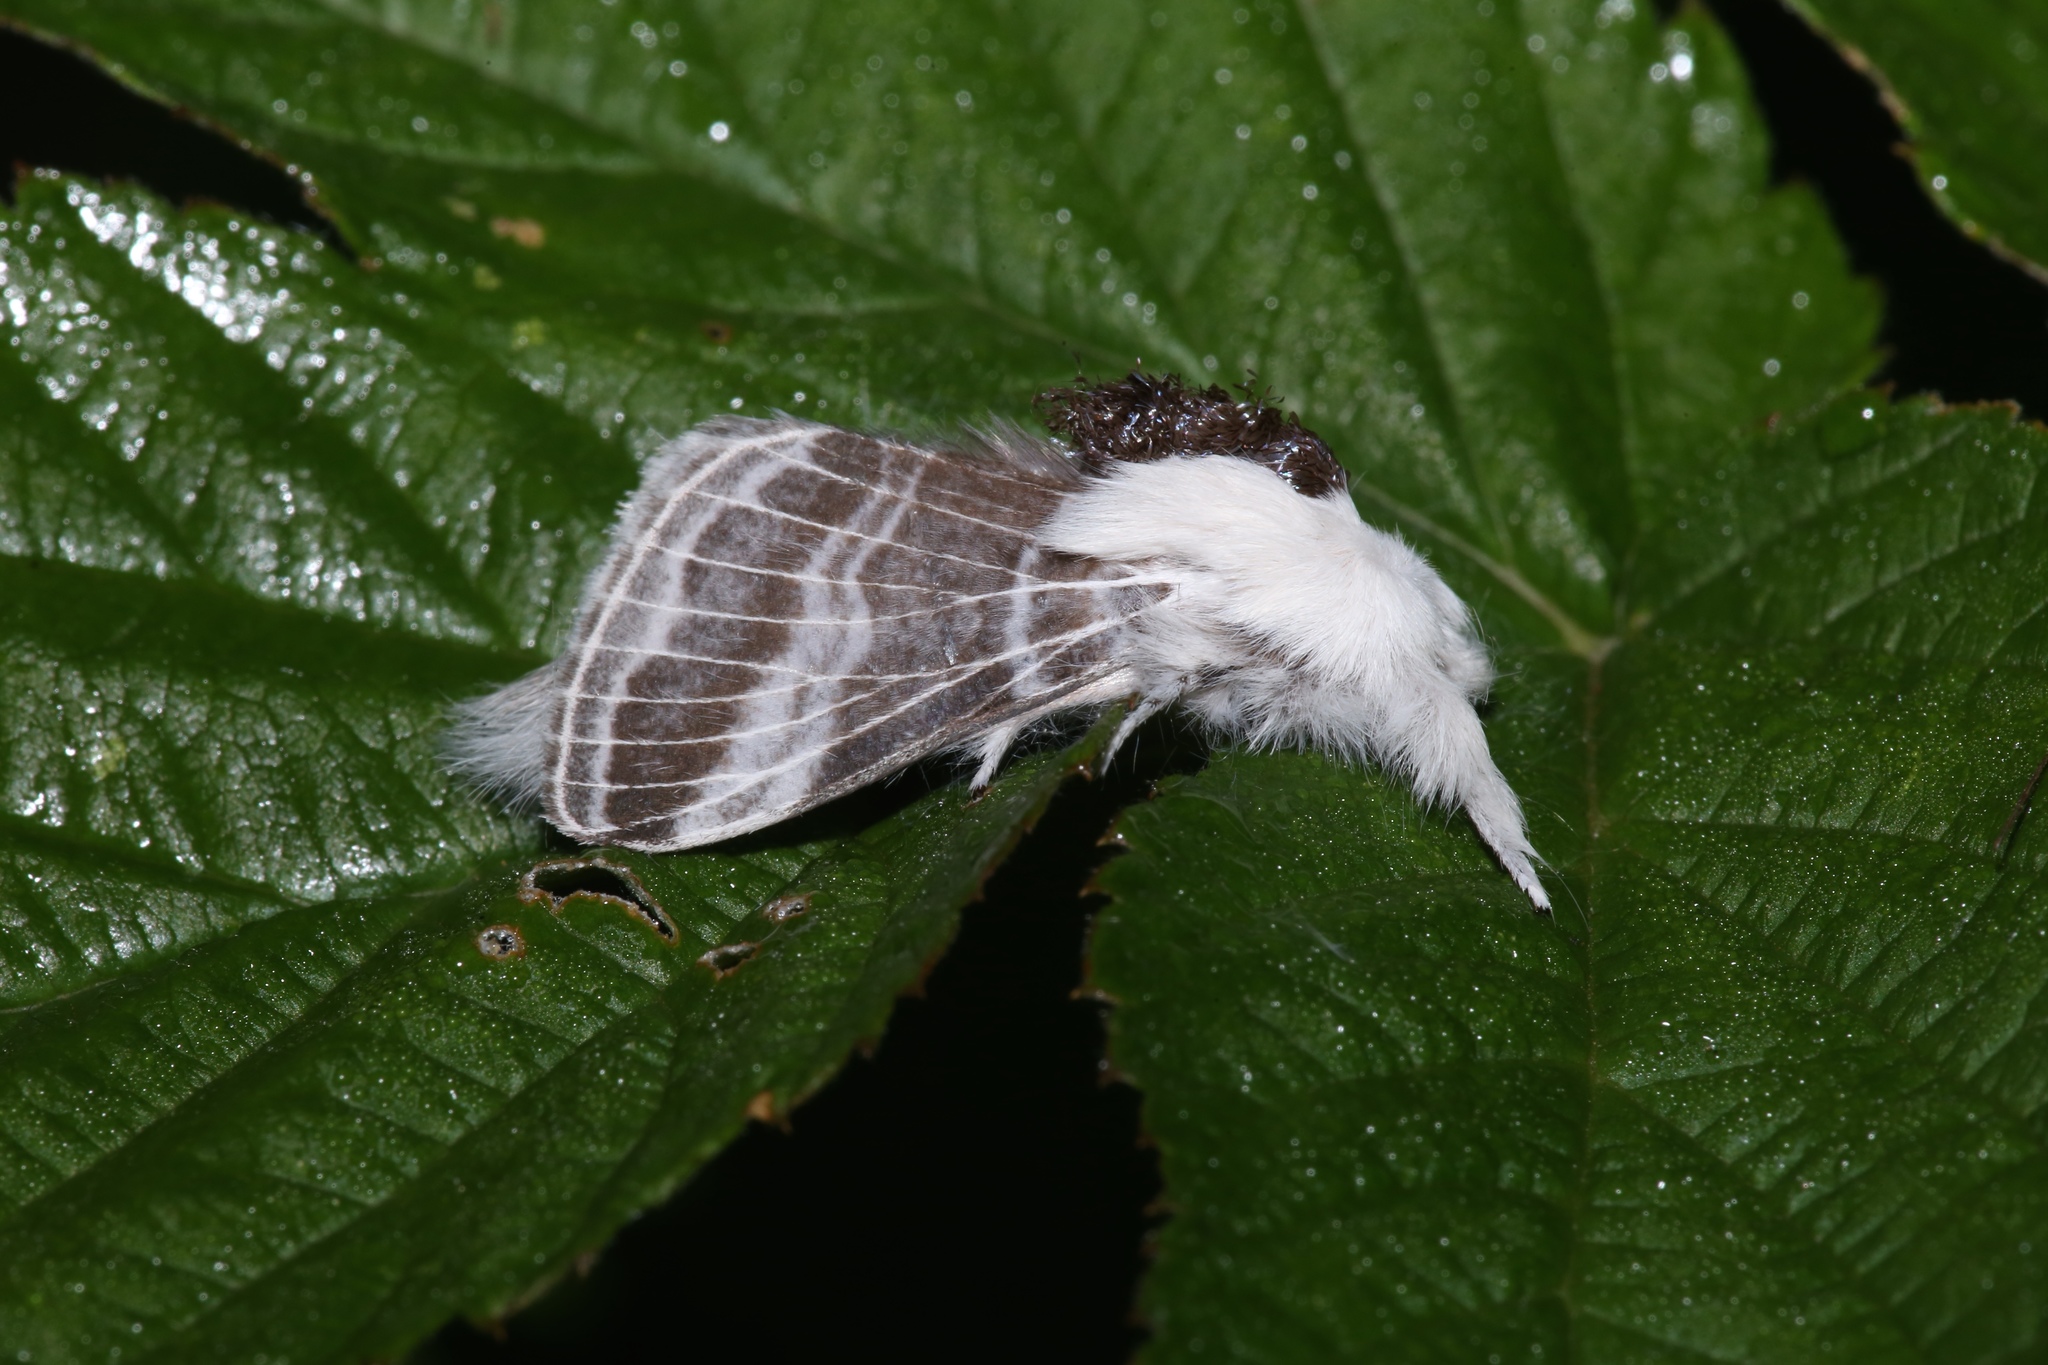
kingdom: Animalia
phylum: Arthropoda
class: Insecta
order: Lepidoptera
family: Lasiocampidae
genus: Tolype
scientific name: Tolype velleda
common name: Large tolype moth
